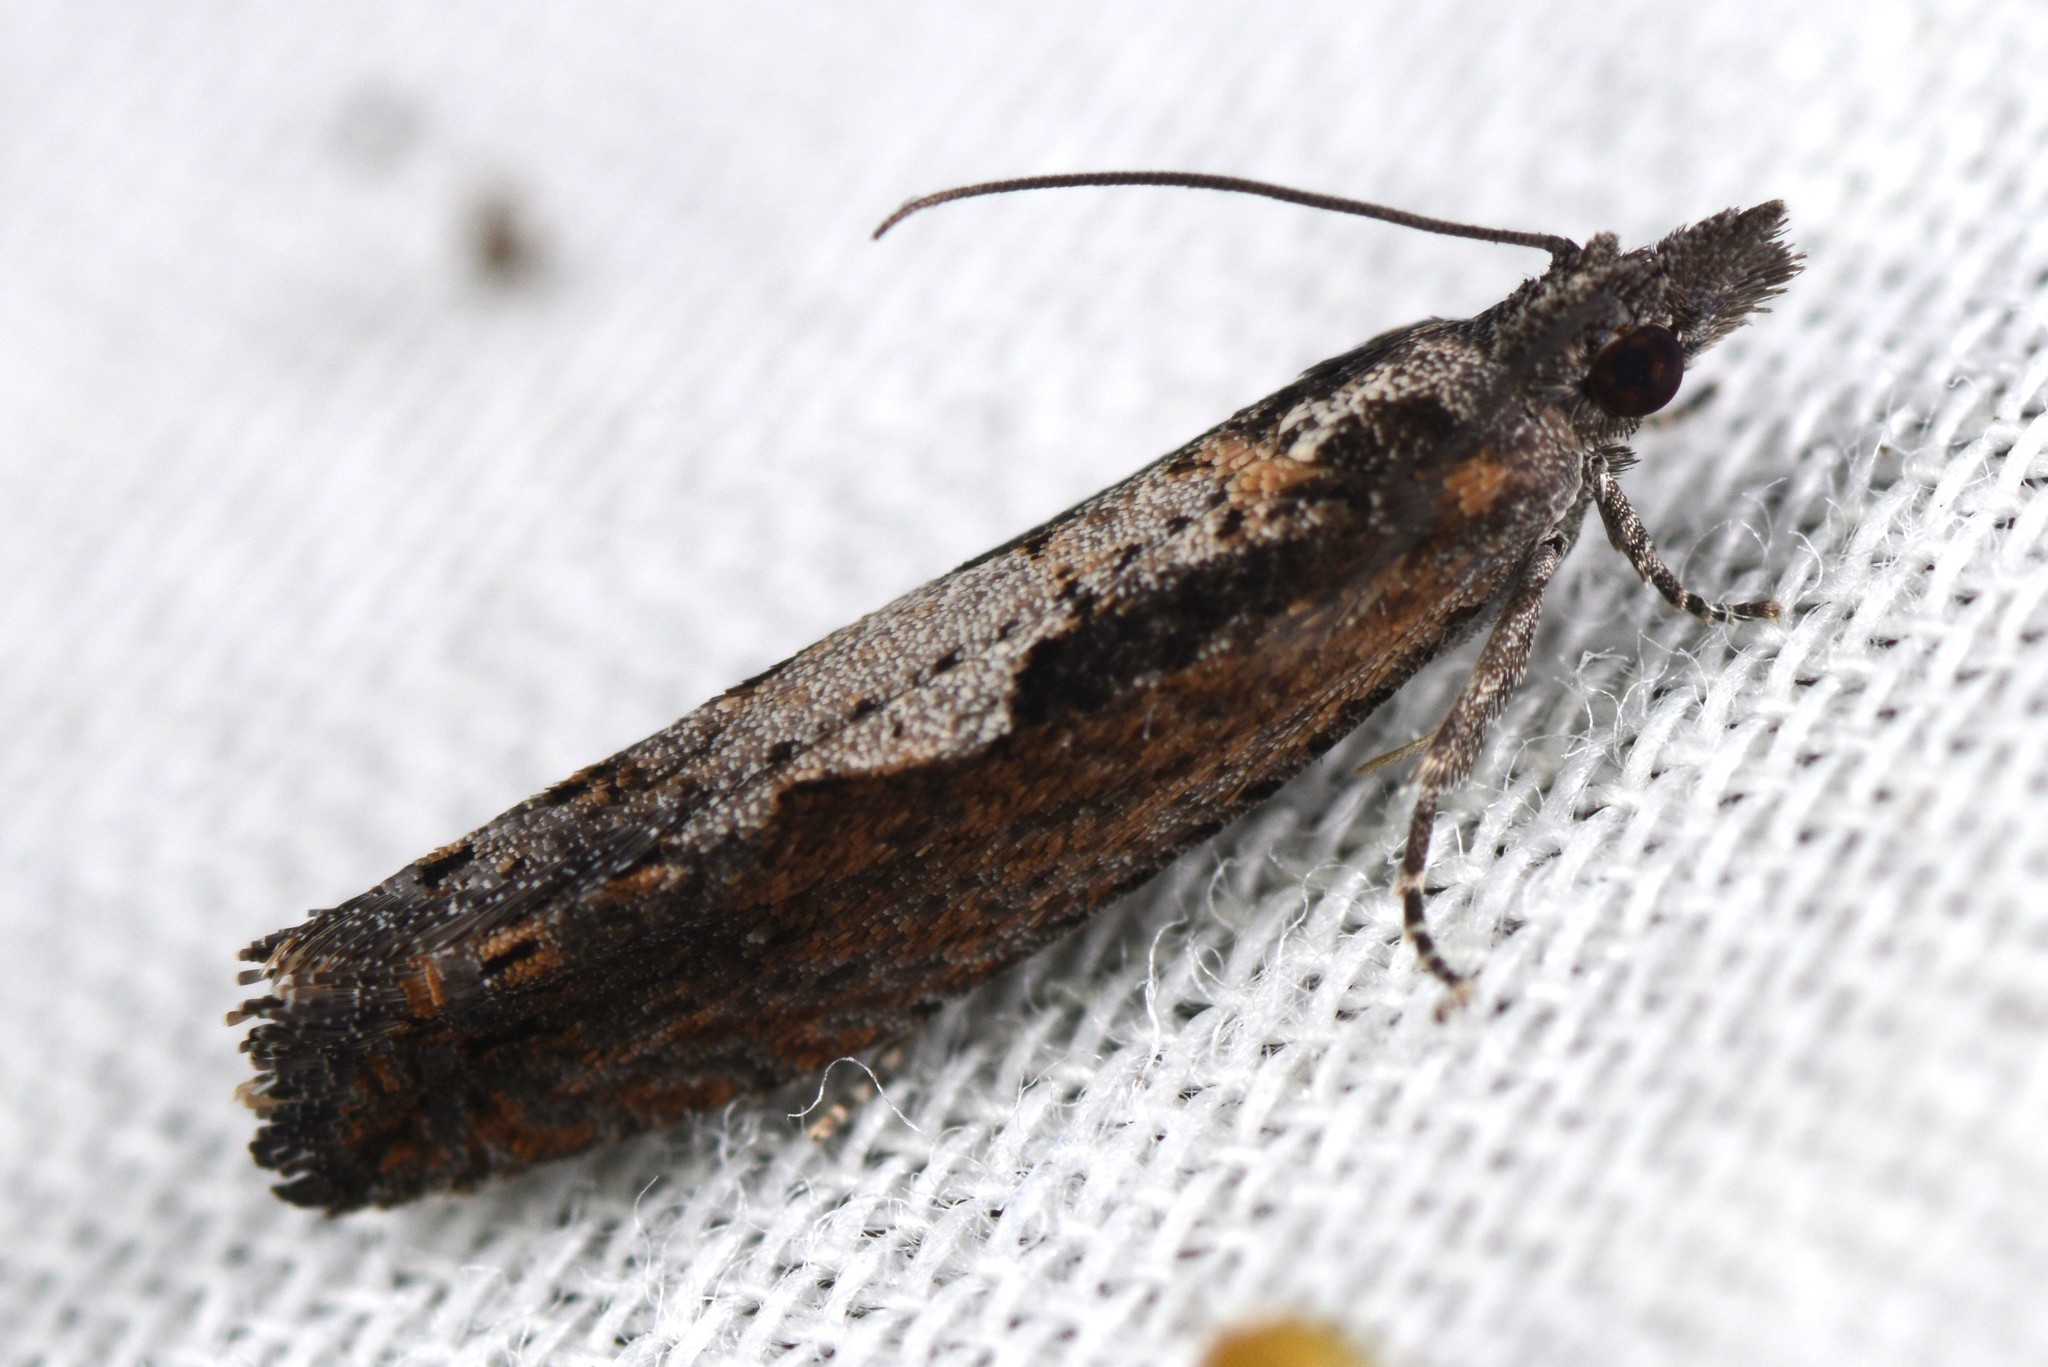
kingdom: Animalia
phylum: Arthropoda
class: Insecta
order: Lepidoptera
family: Tortricidae
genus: Strepsicrates
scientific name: Strepsicrates macropetana
